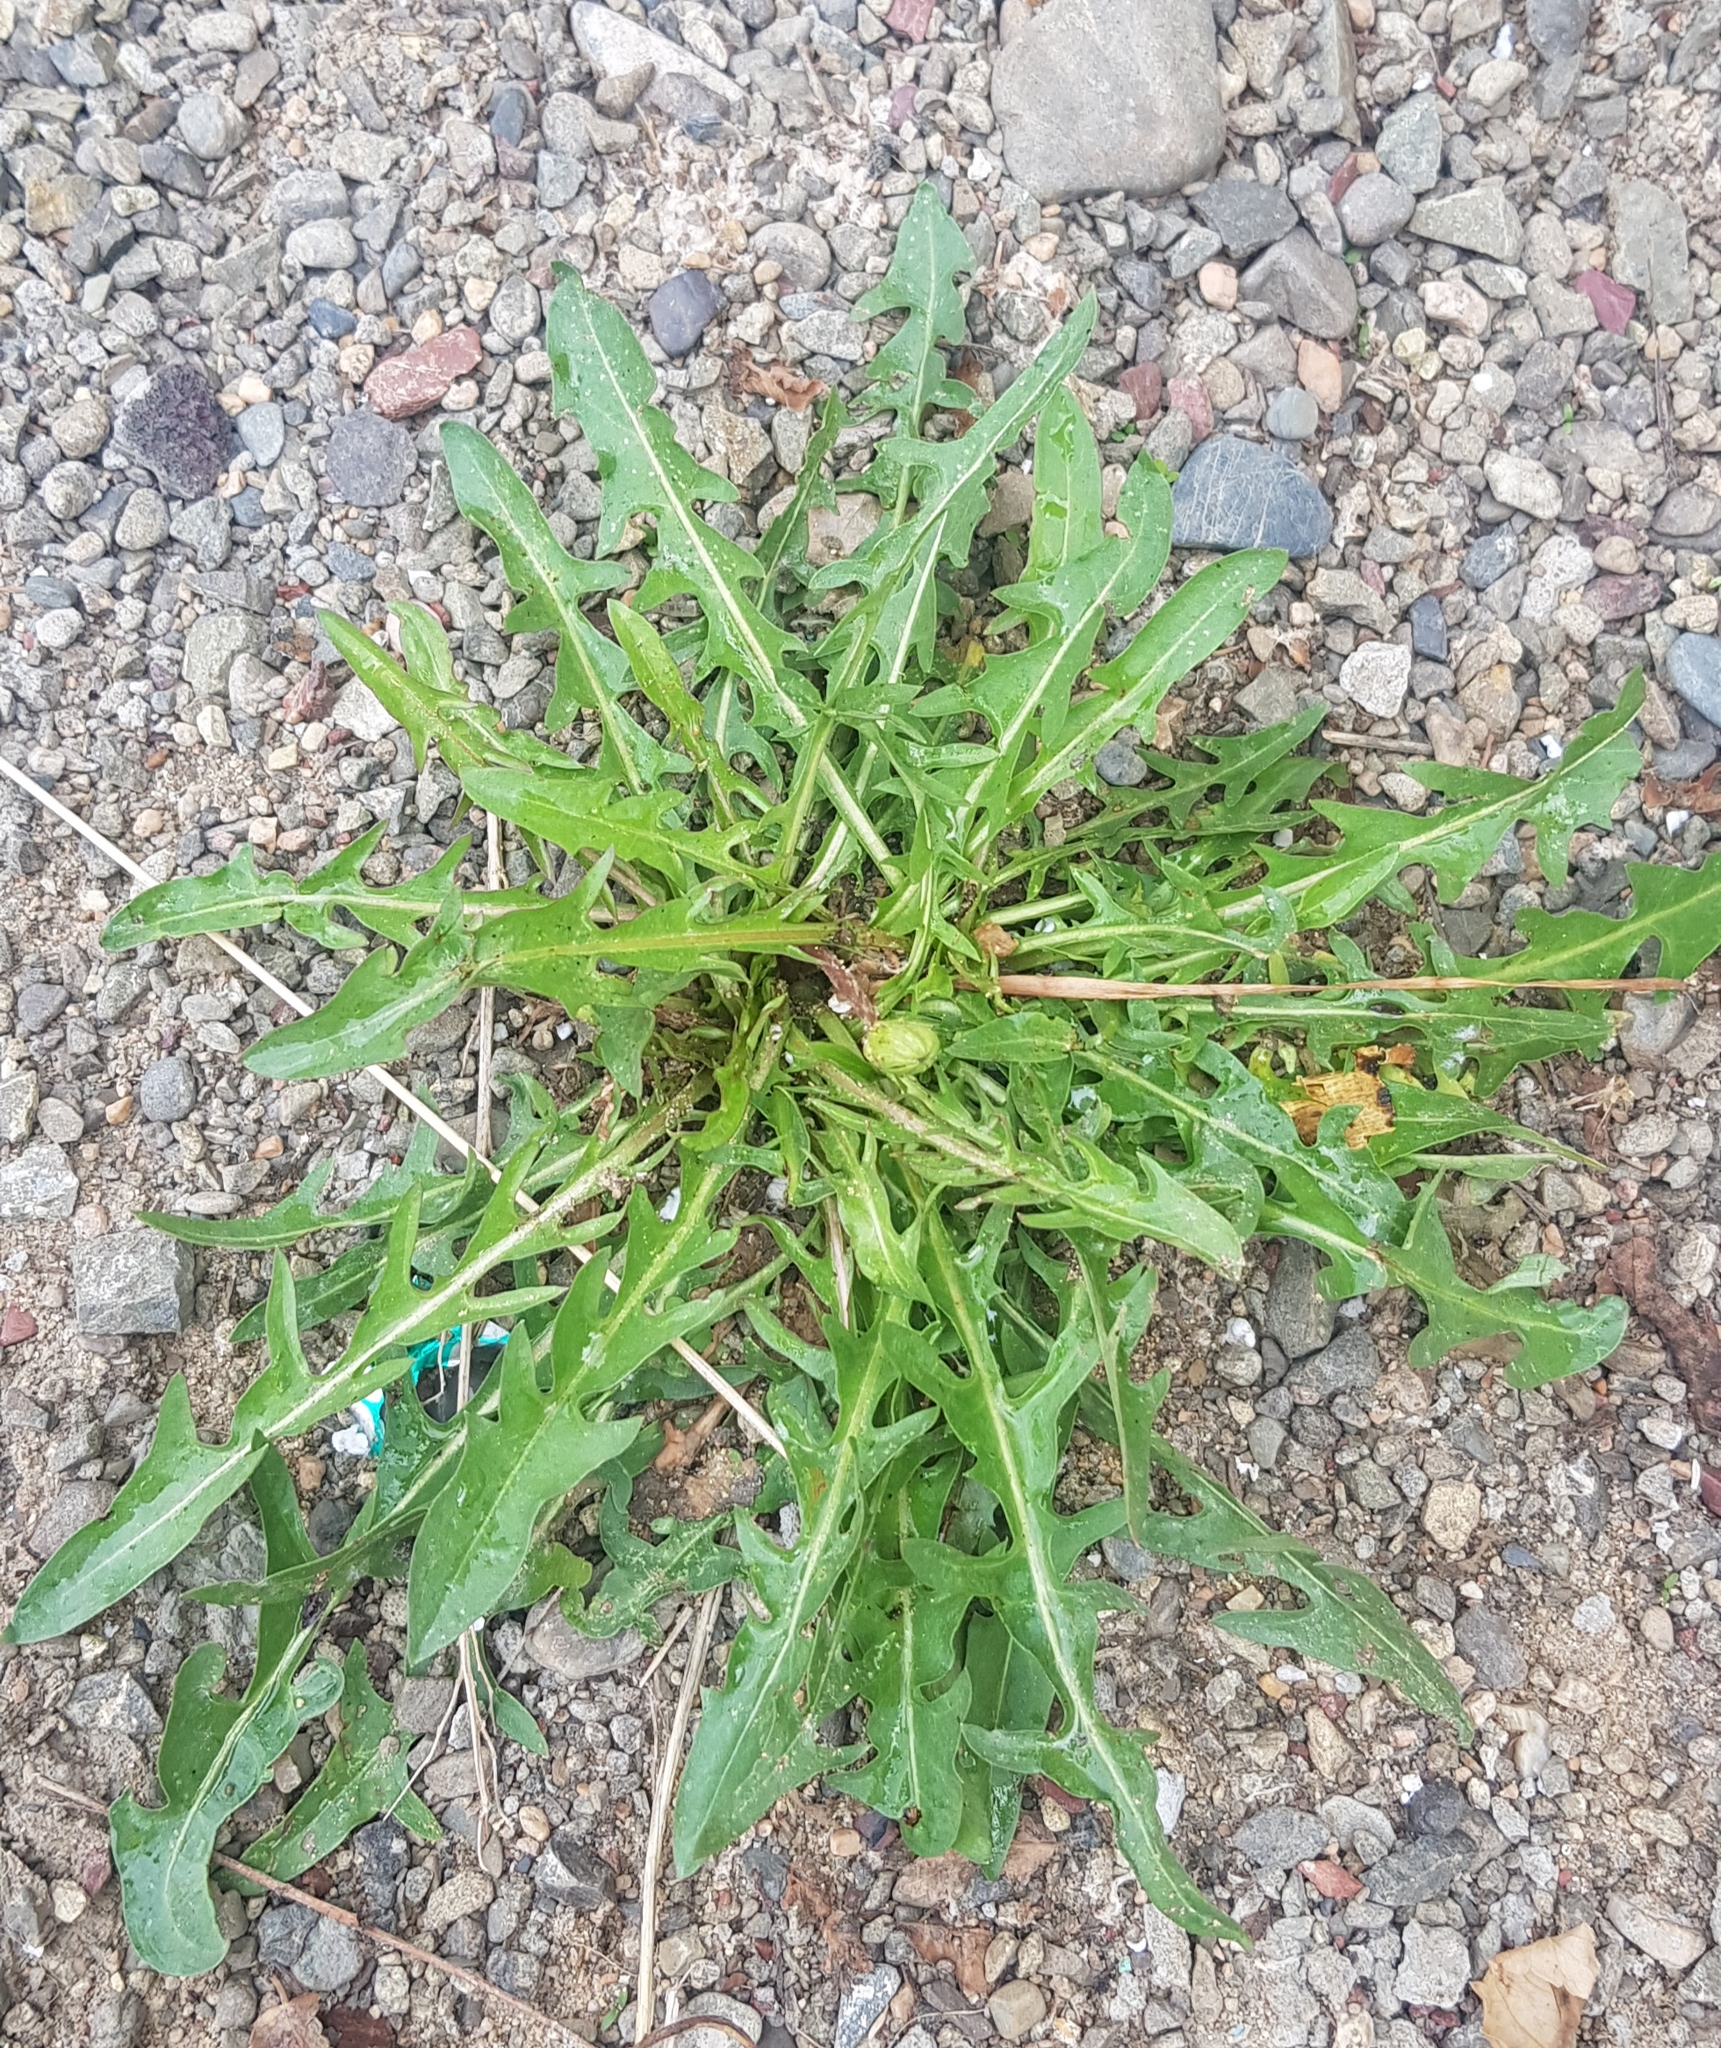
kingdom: Plantae
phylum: Tracheophyta
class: Magnoliopsida
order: Asterales
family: Asteraceae
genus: Taraxacum
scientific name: Taraxacum officinale
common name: Common dandelion
